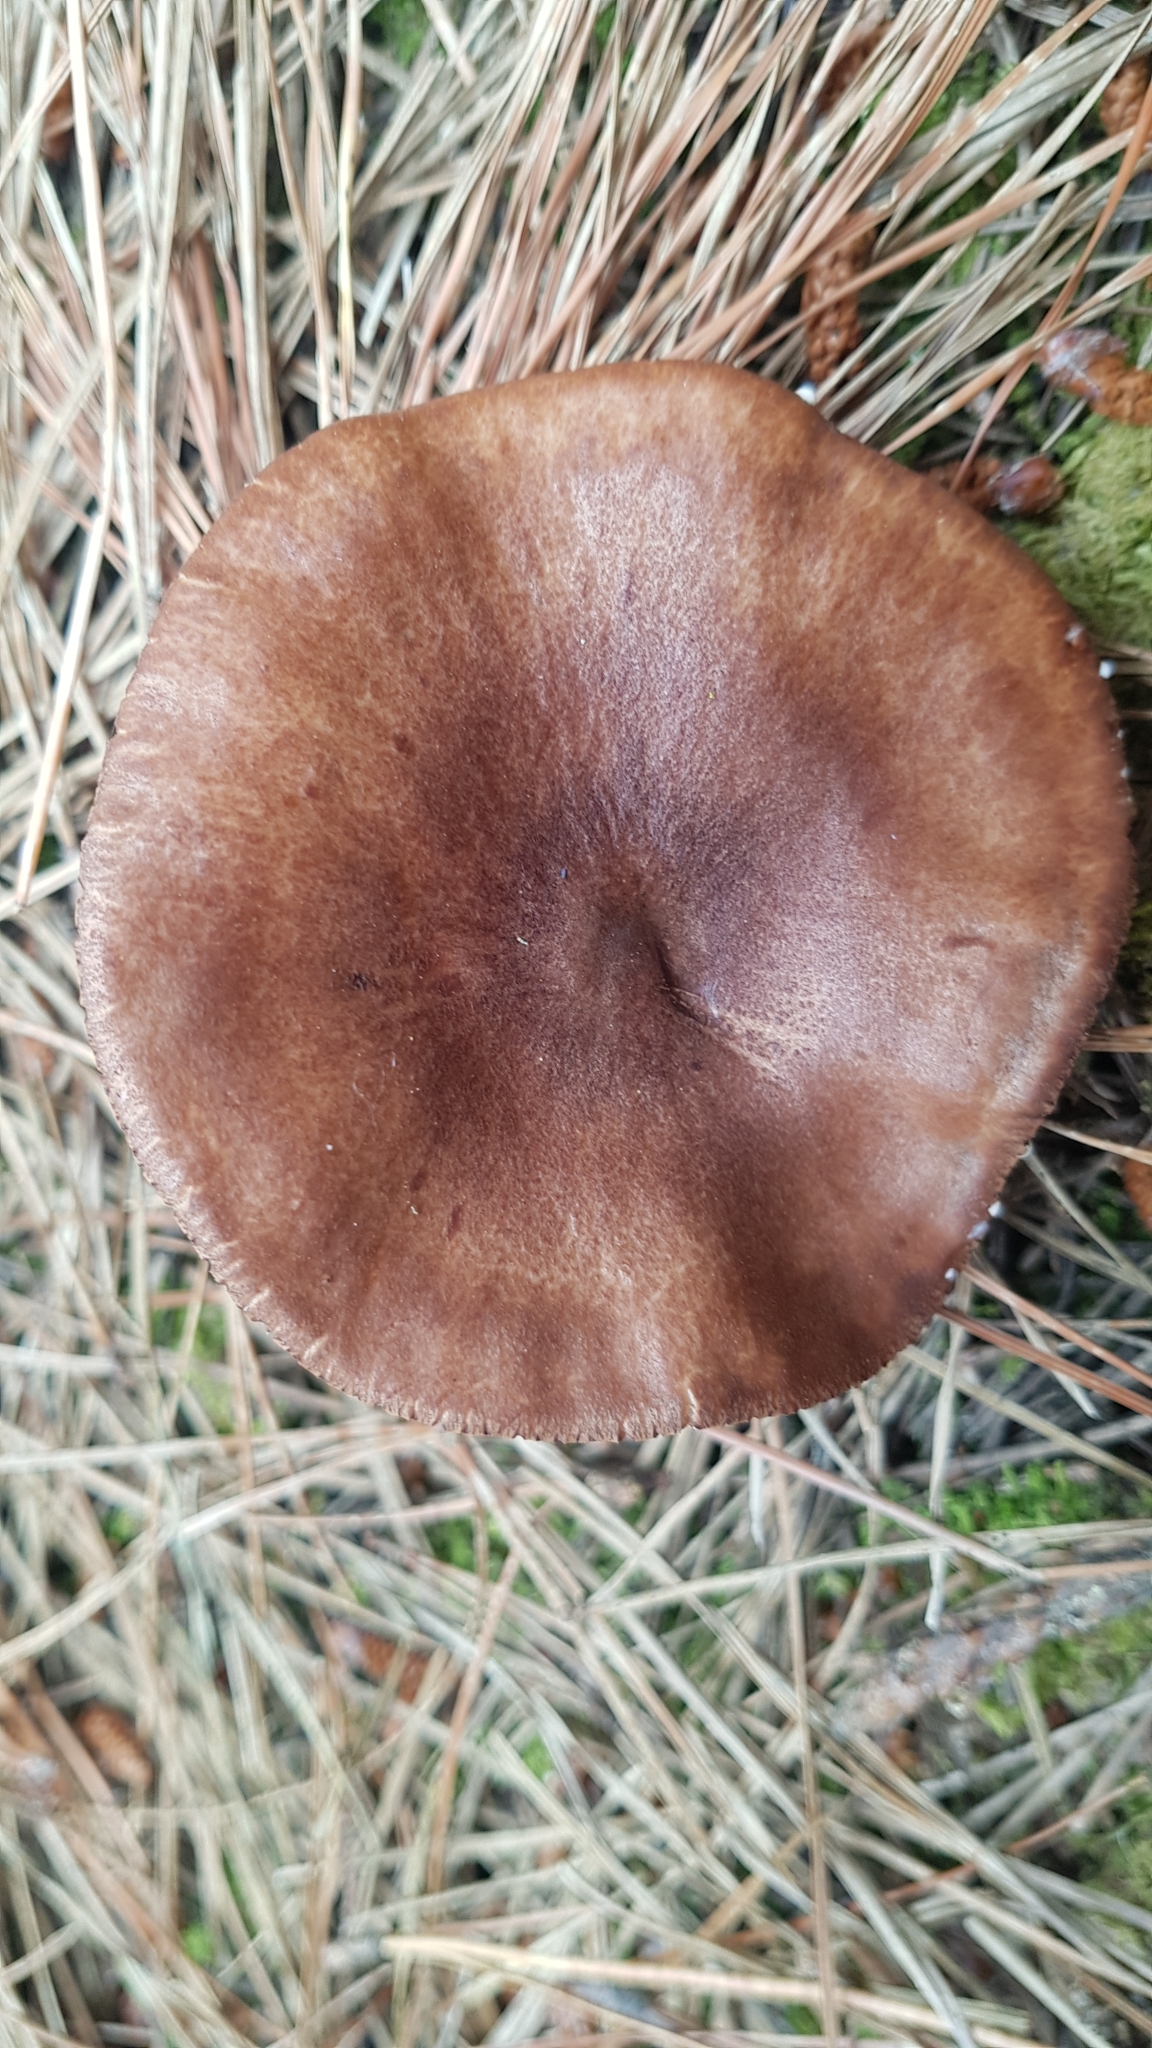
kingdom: Fungi
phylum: Basidiomycota
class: Agaricomycetes
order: Russulales
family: Russulaceae
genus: Lactarius
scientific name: Lactarius rufus
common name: Rufous milk-cap
